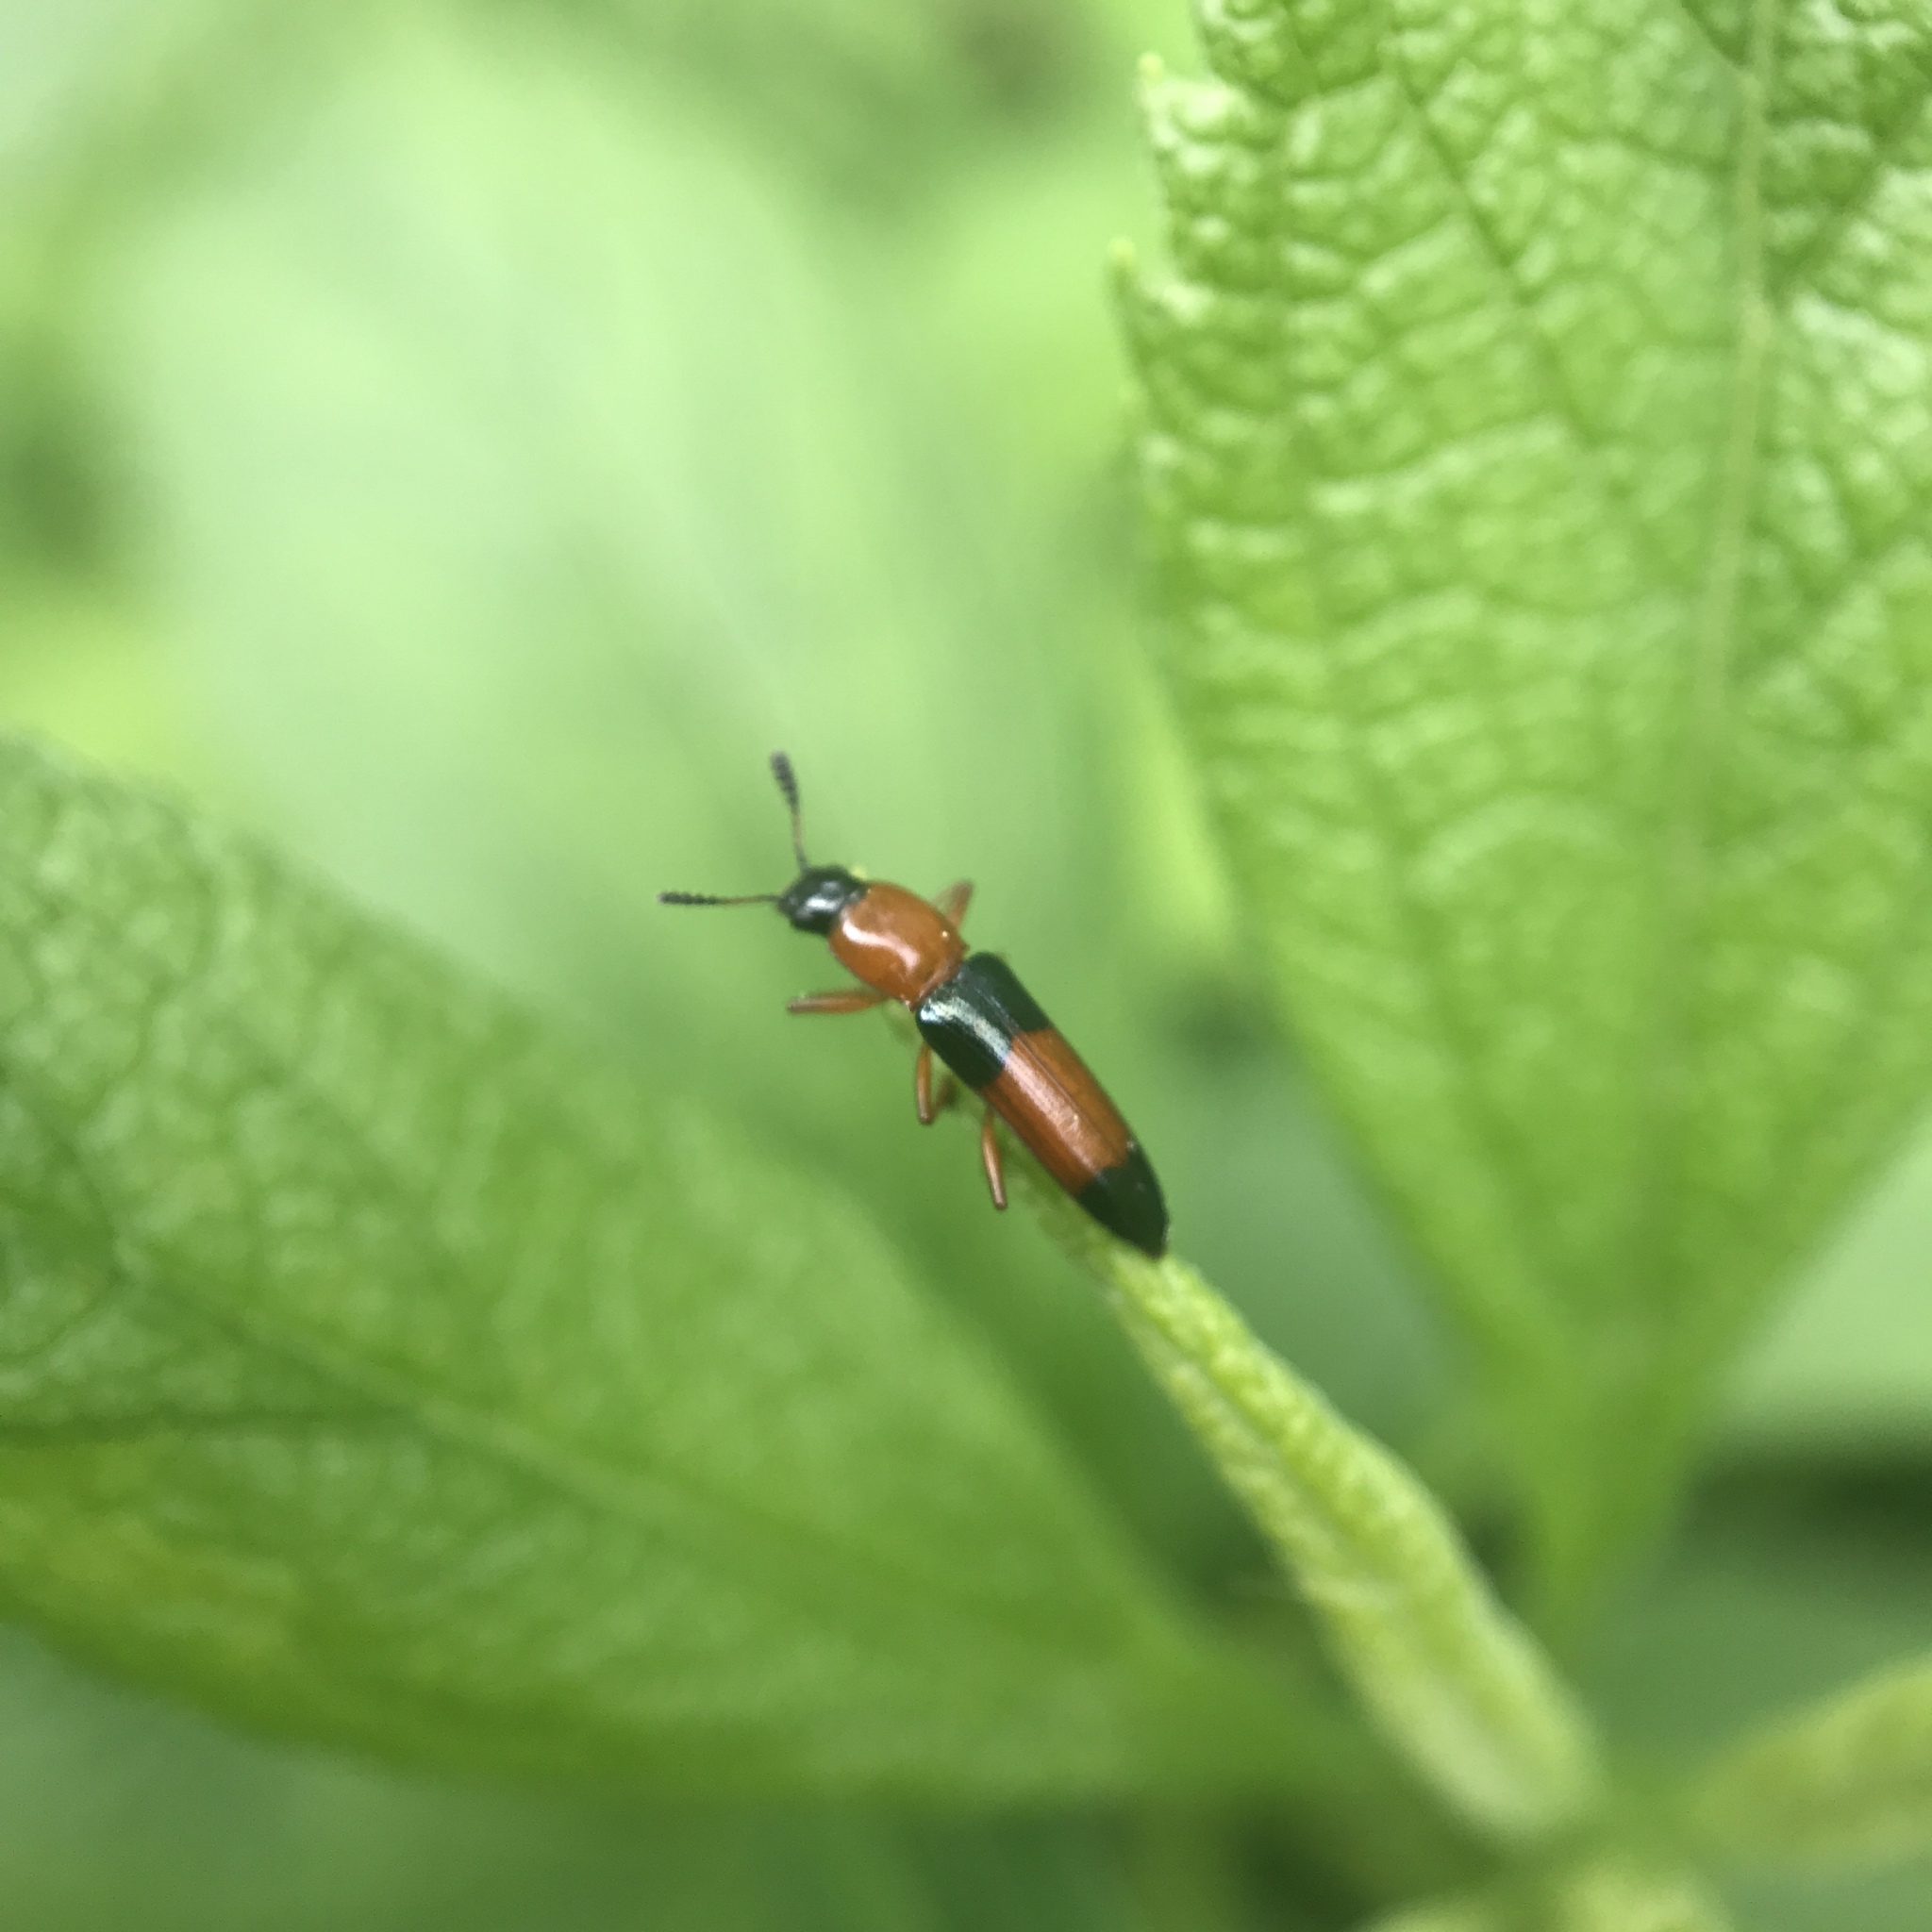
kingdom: Animalia
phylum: Arthropoda
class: Insecta
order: Coleoptera
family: Erotylidae
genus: Languria
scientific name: Languria trifasciata
